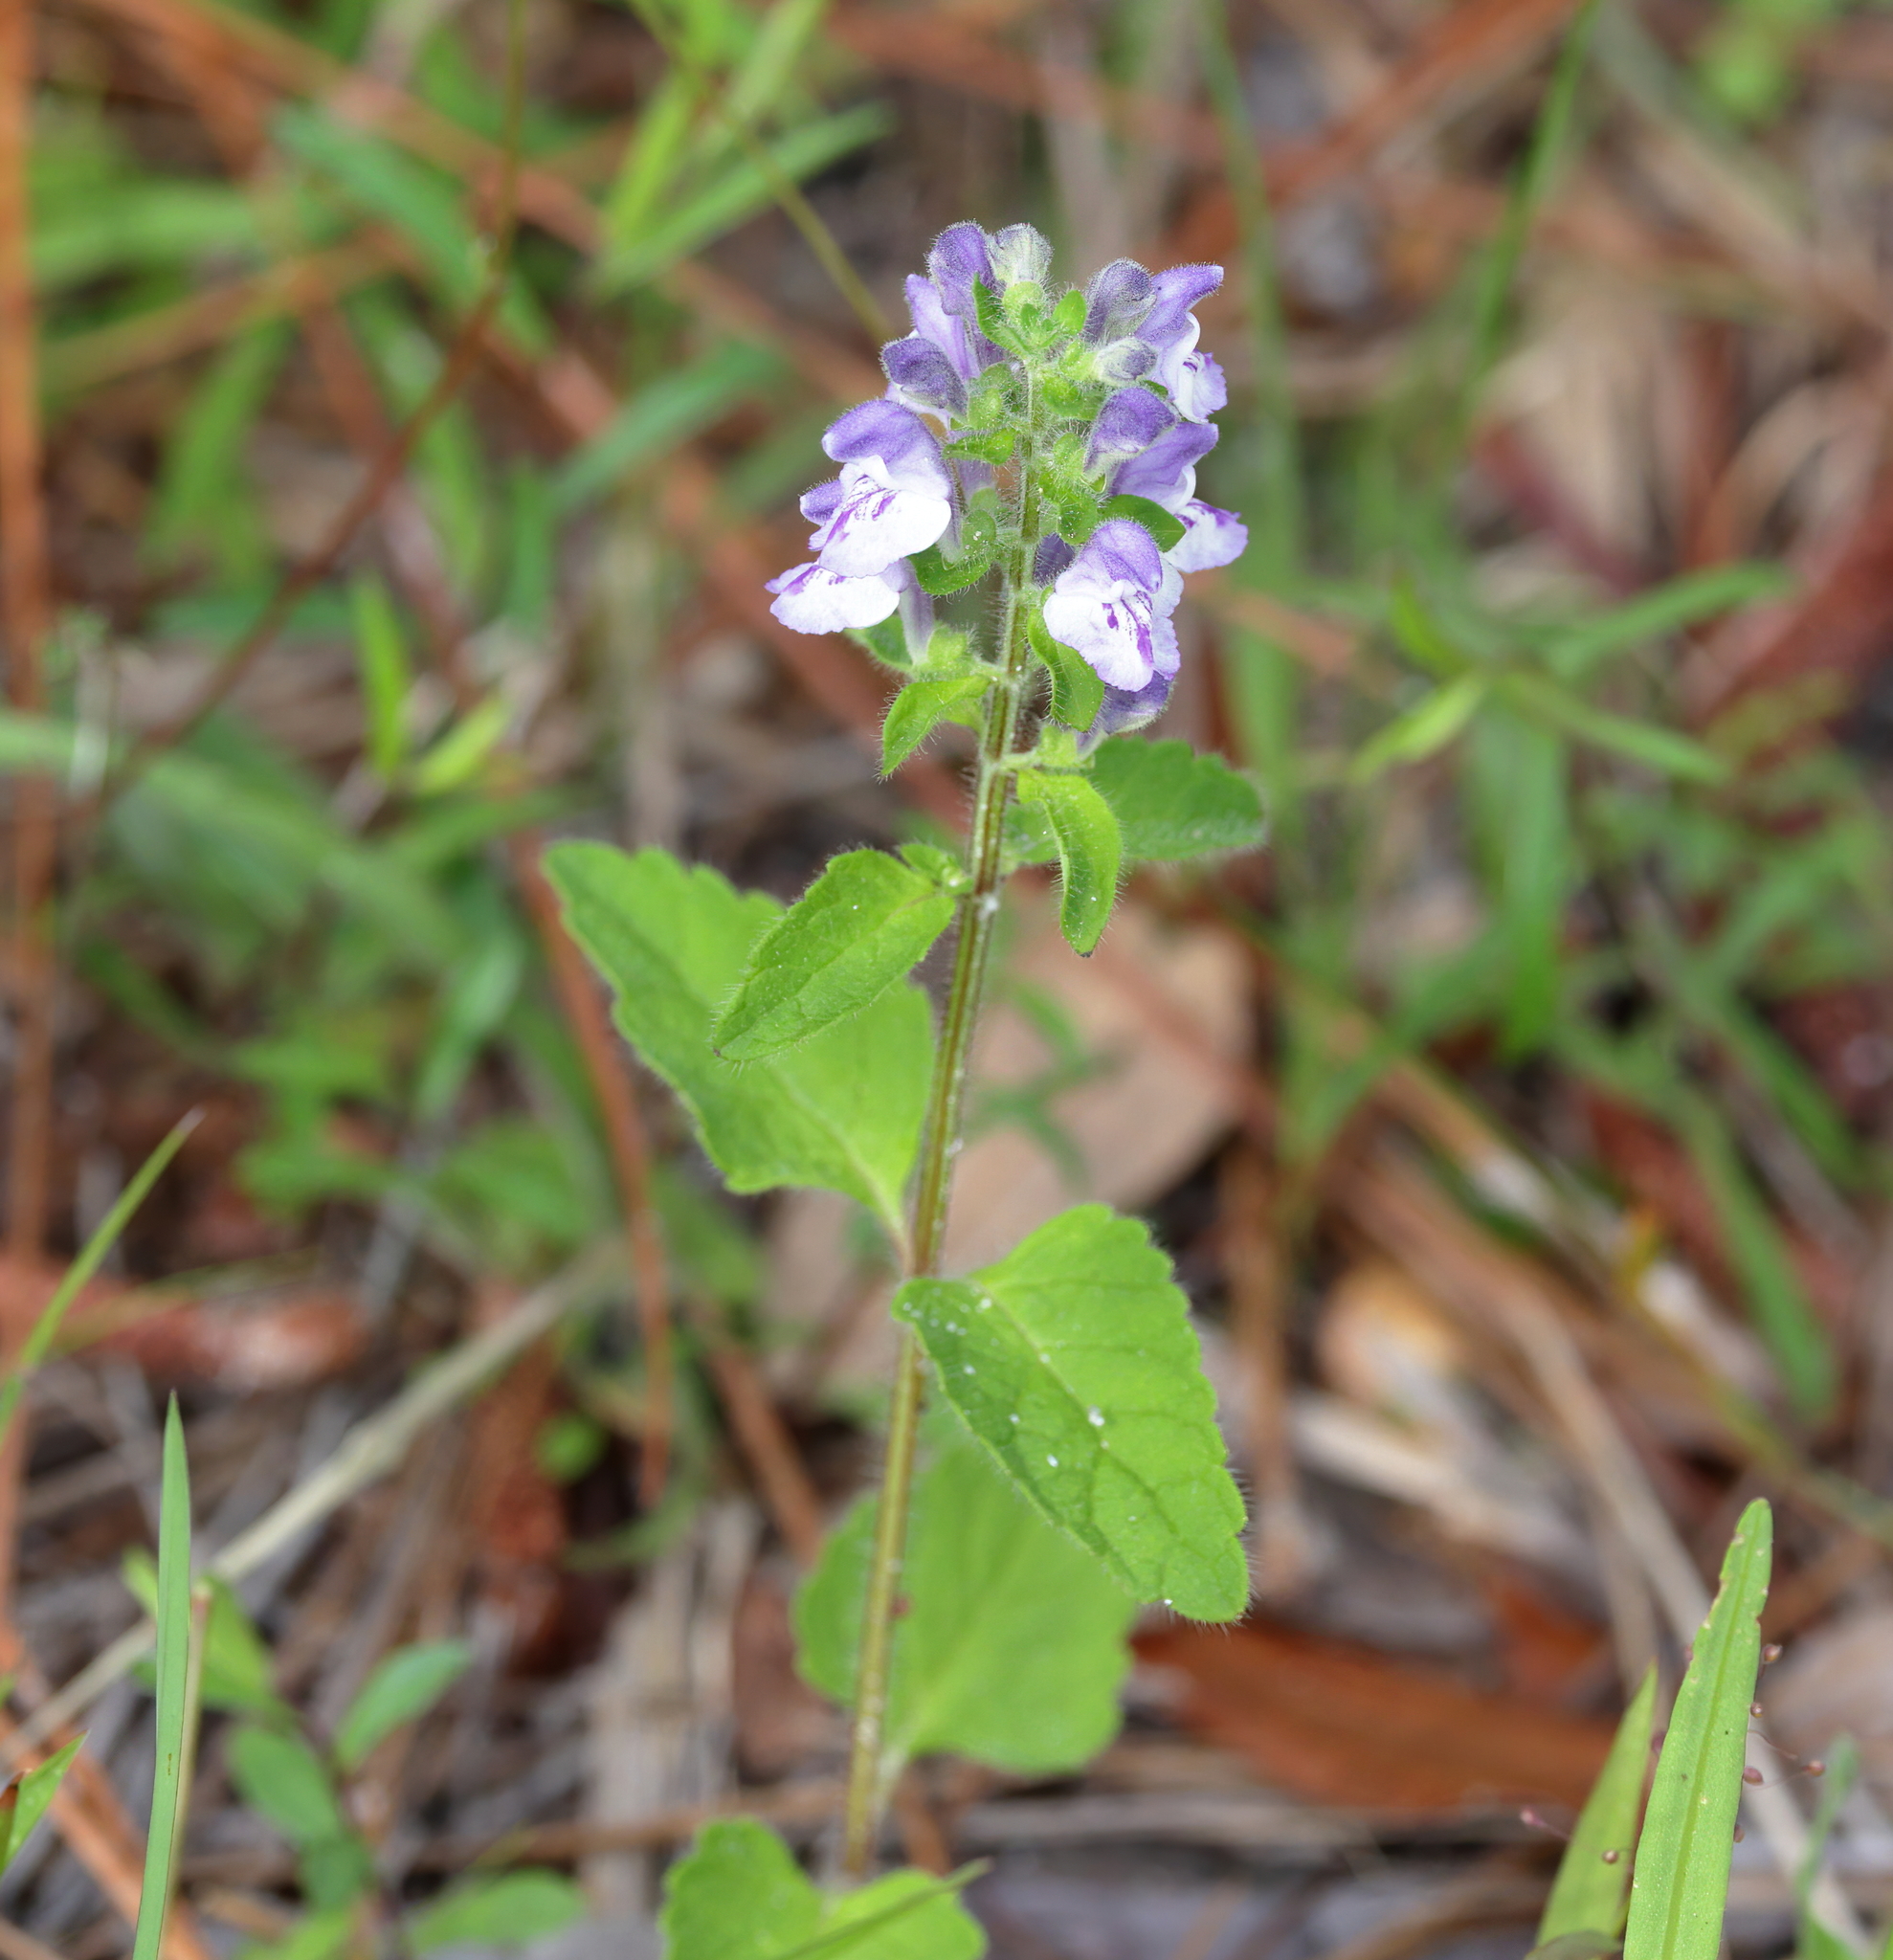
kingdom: Plantae
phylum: Tracheophyta
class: Magnoliopsida
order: Lamiales
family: Lamiaceae
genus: Scutellaria
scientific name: Scutellaria elliptica
